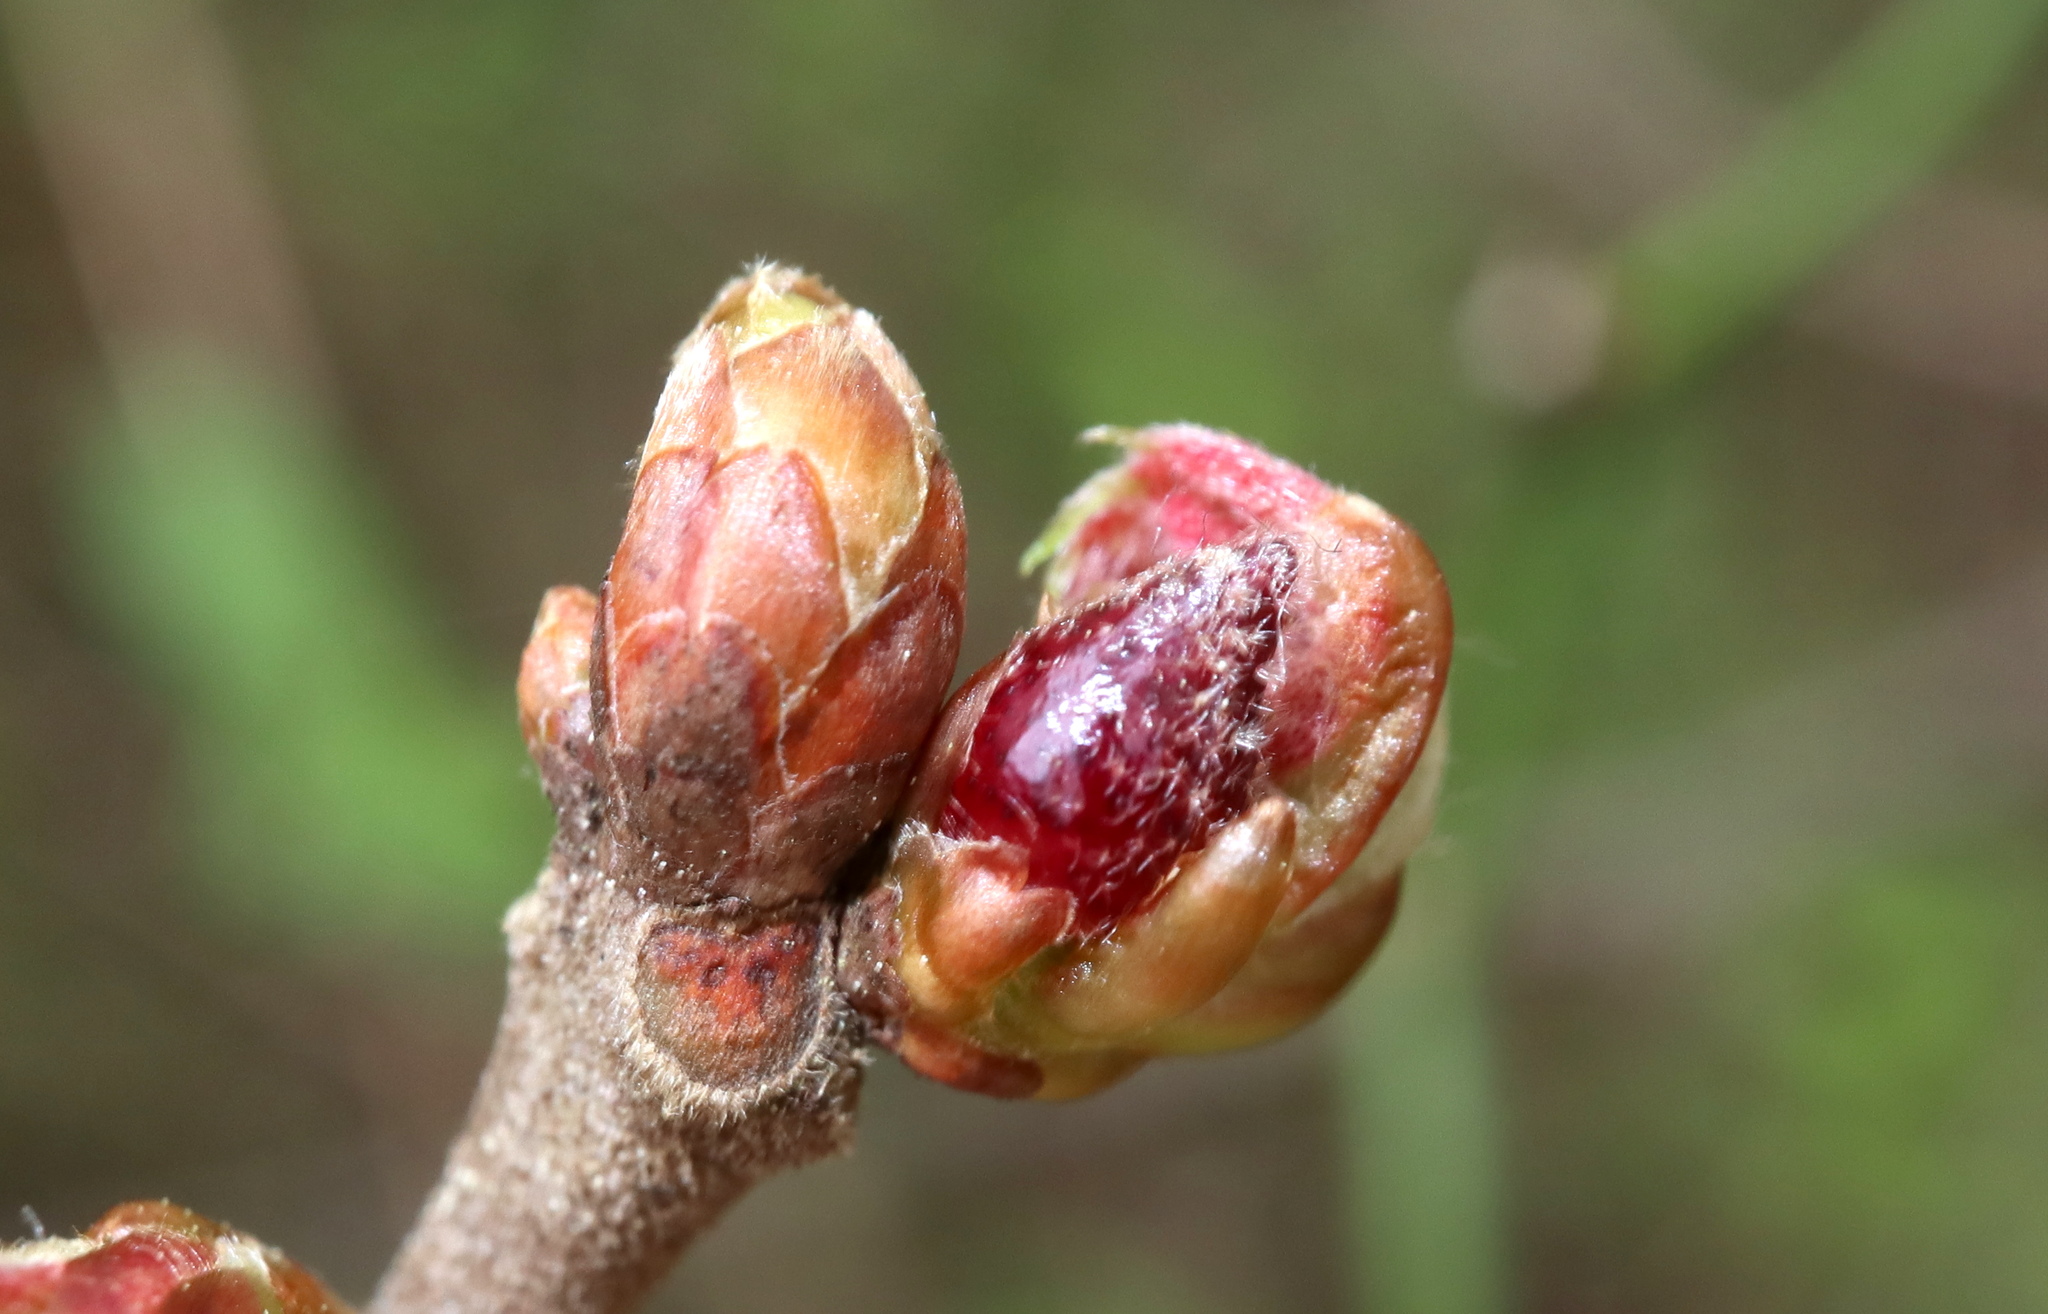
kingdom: Animalia
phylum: Arthropoda
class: Insecta
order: Hymenoptera
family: Cynipidae
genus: Amphibolips
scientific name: Amphibolips
